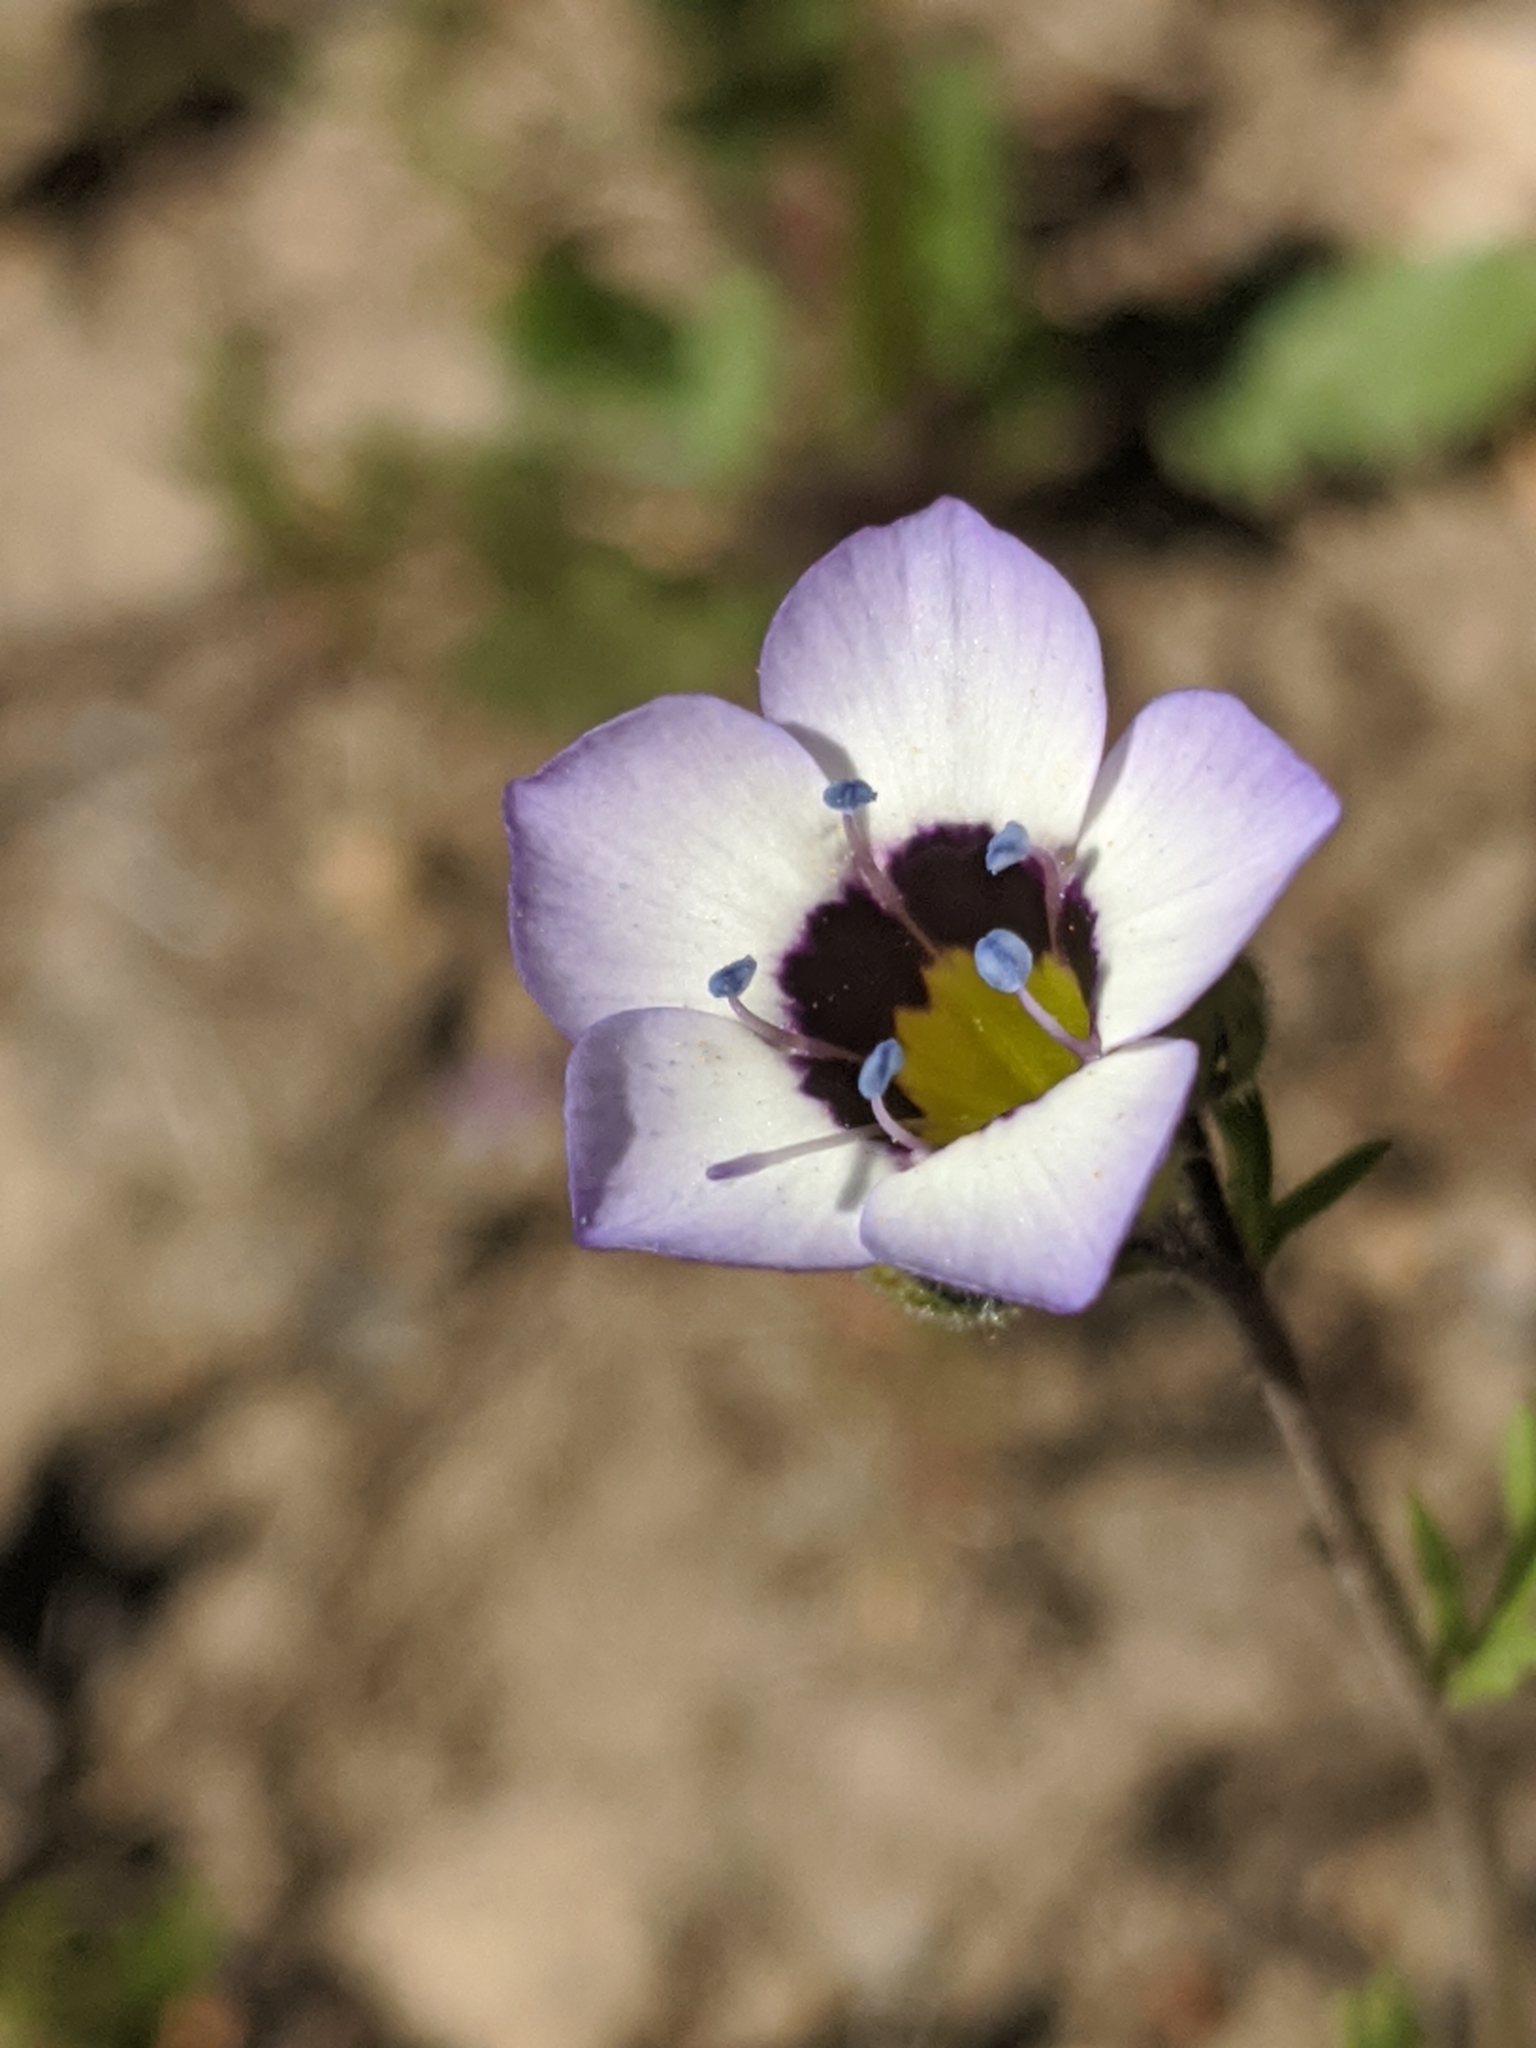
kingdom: Plantae
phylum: Tracheophyta
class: Magnoliopsida
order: Ericales
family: Polemoniaceae
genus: Gilia
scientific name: Gilia tricolor
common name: Bird's-eyes
